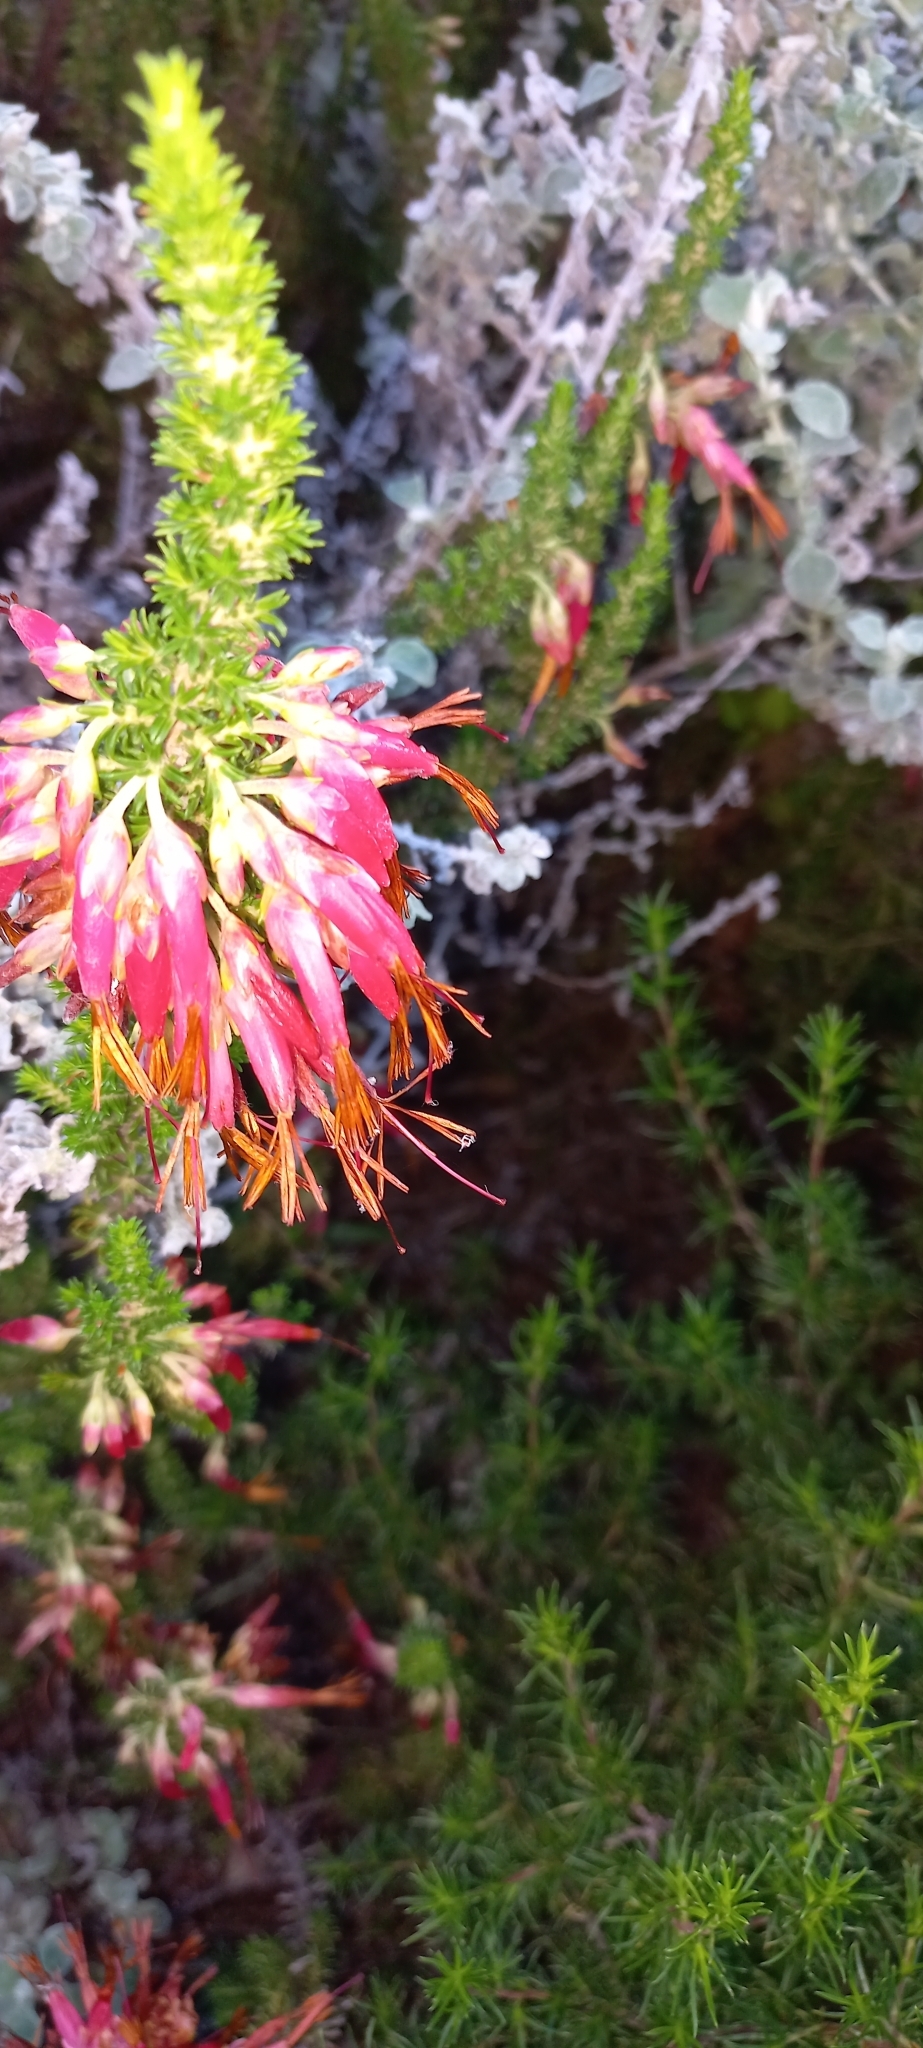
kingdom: Plantae
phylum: Tracheophyta
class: Magnoliopsida
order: Ericales
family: Ericaceae
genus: Erica
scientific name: Erica coccinea
